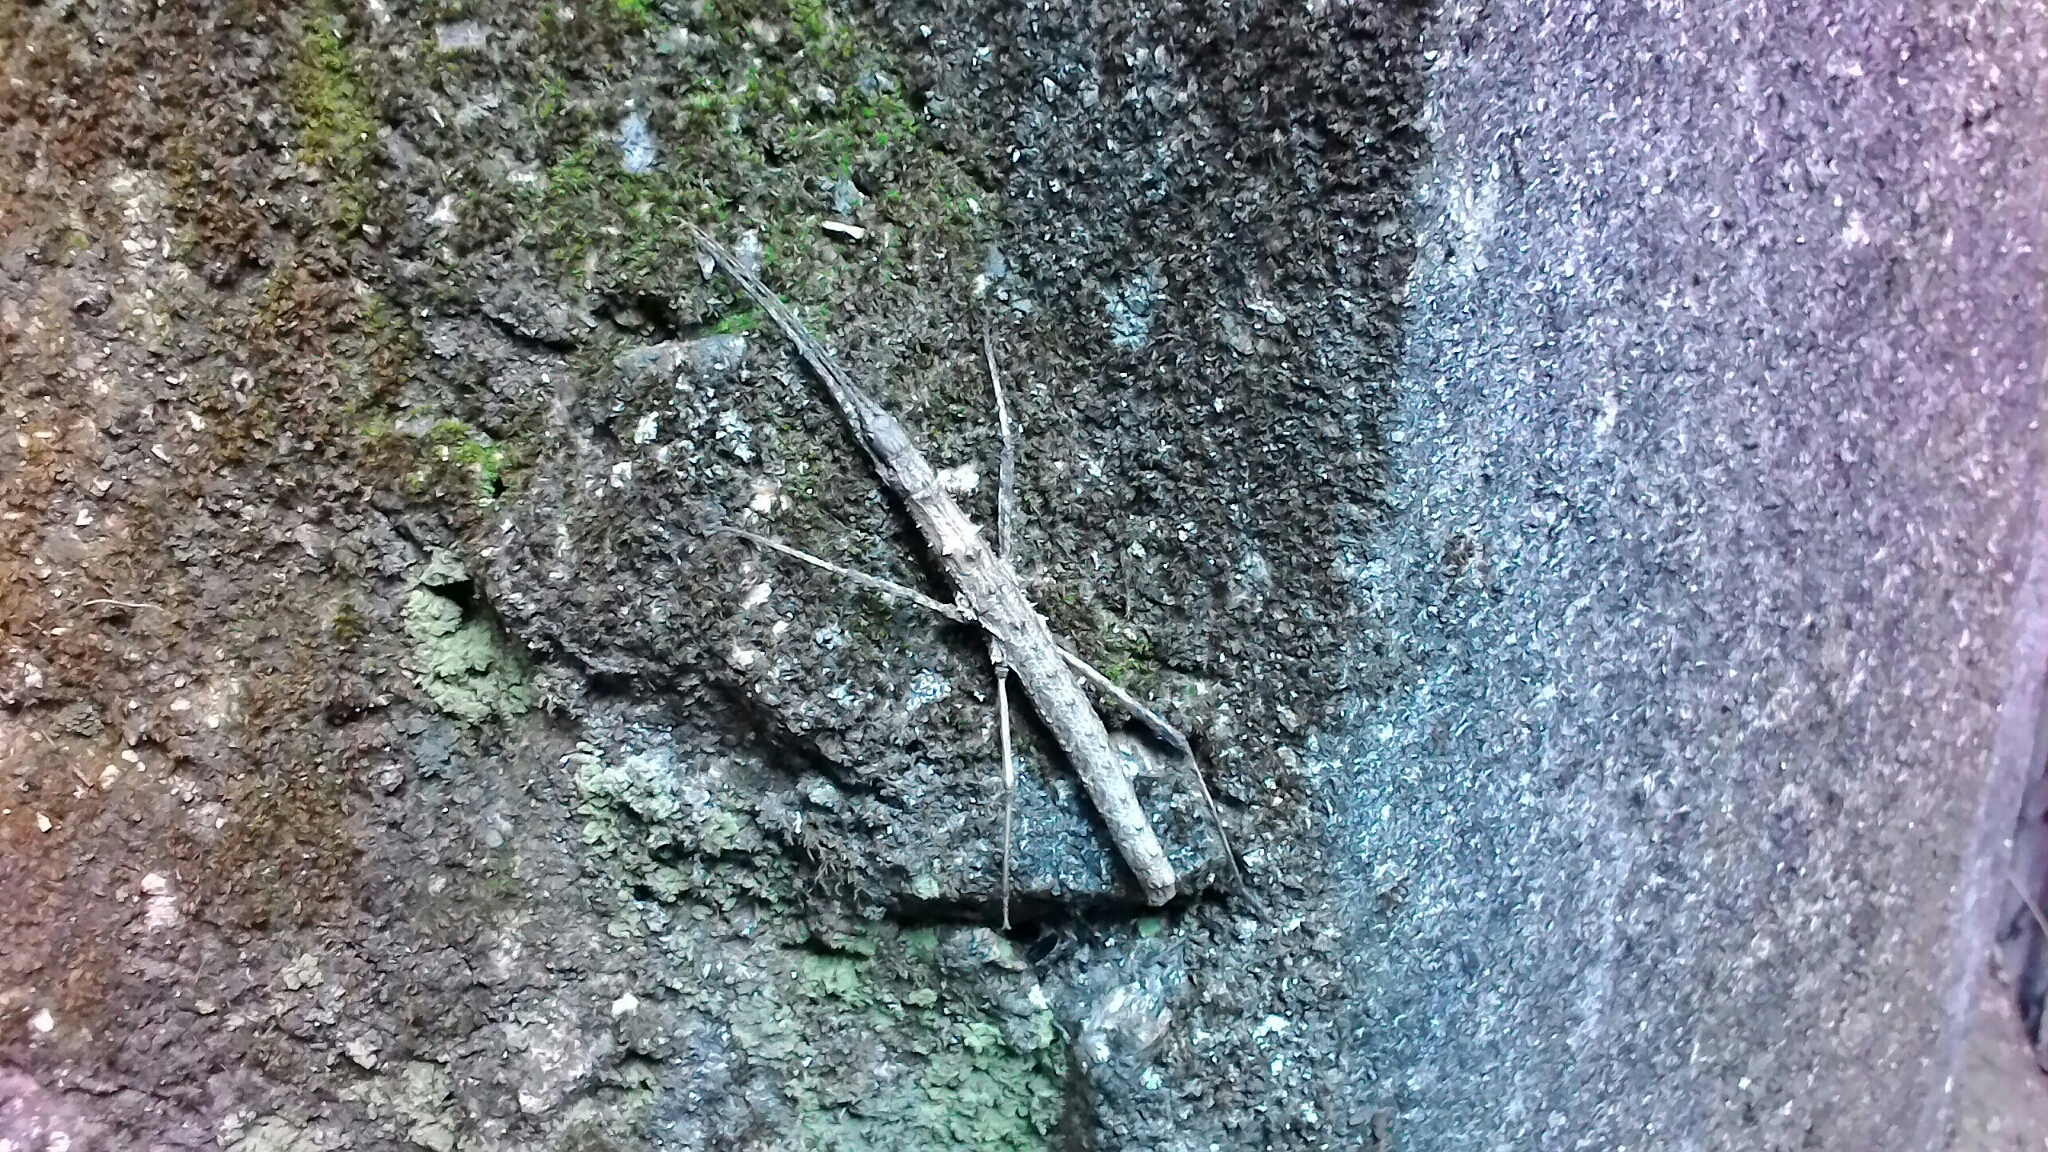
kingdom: Animalia
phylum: Arthropoda
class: Insecta
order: Phasmida
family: Lonchodidae
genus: Neohirasea
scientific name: Neohirasea japonica
